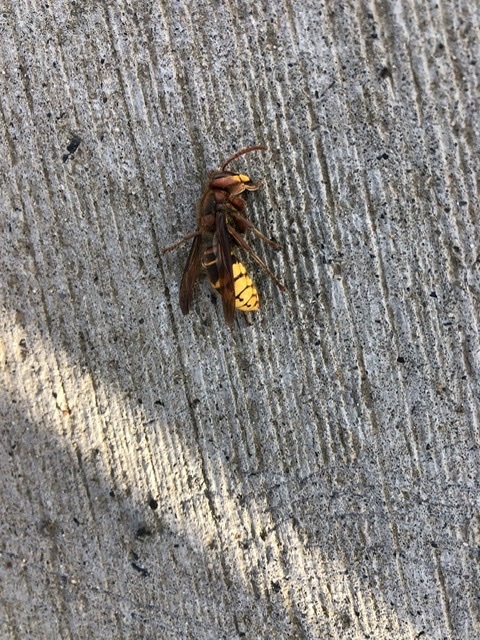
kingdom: Animalia
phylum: Arthropoda
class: Insecta
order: Hymenoptera
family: Vespidae
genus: Vespa
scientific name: Vespa crabro
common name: Hornet
